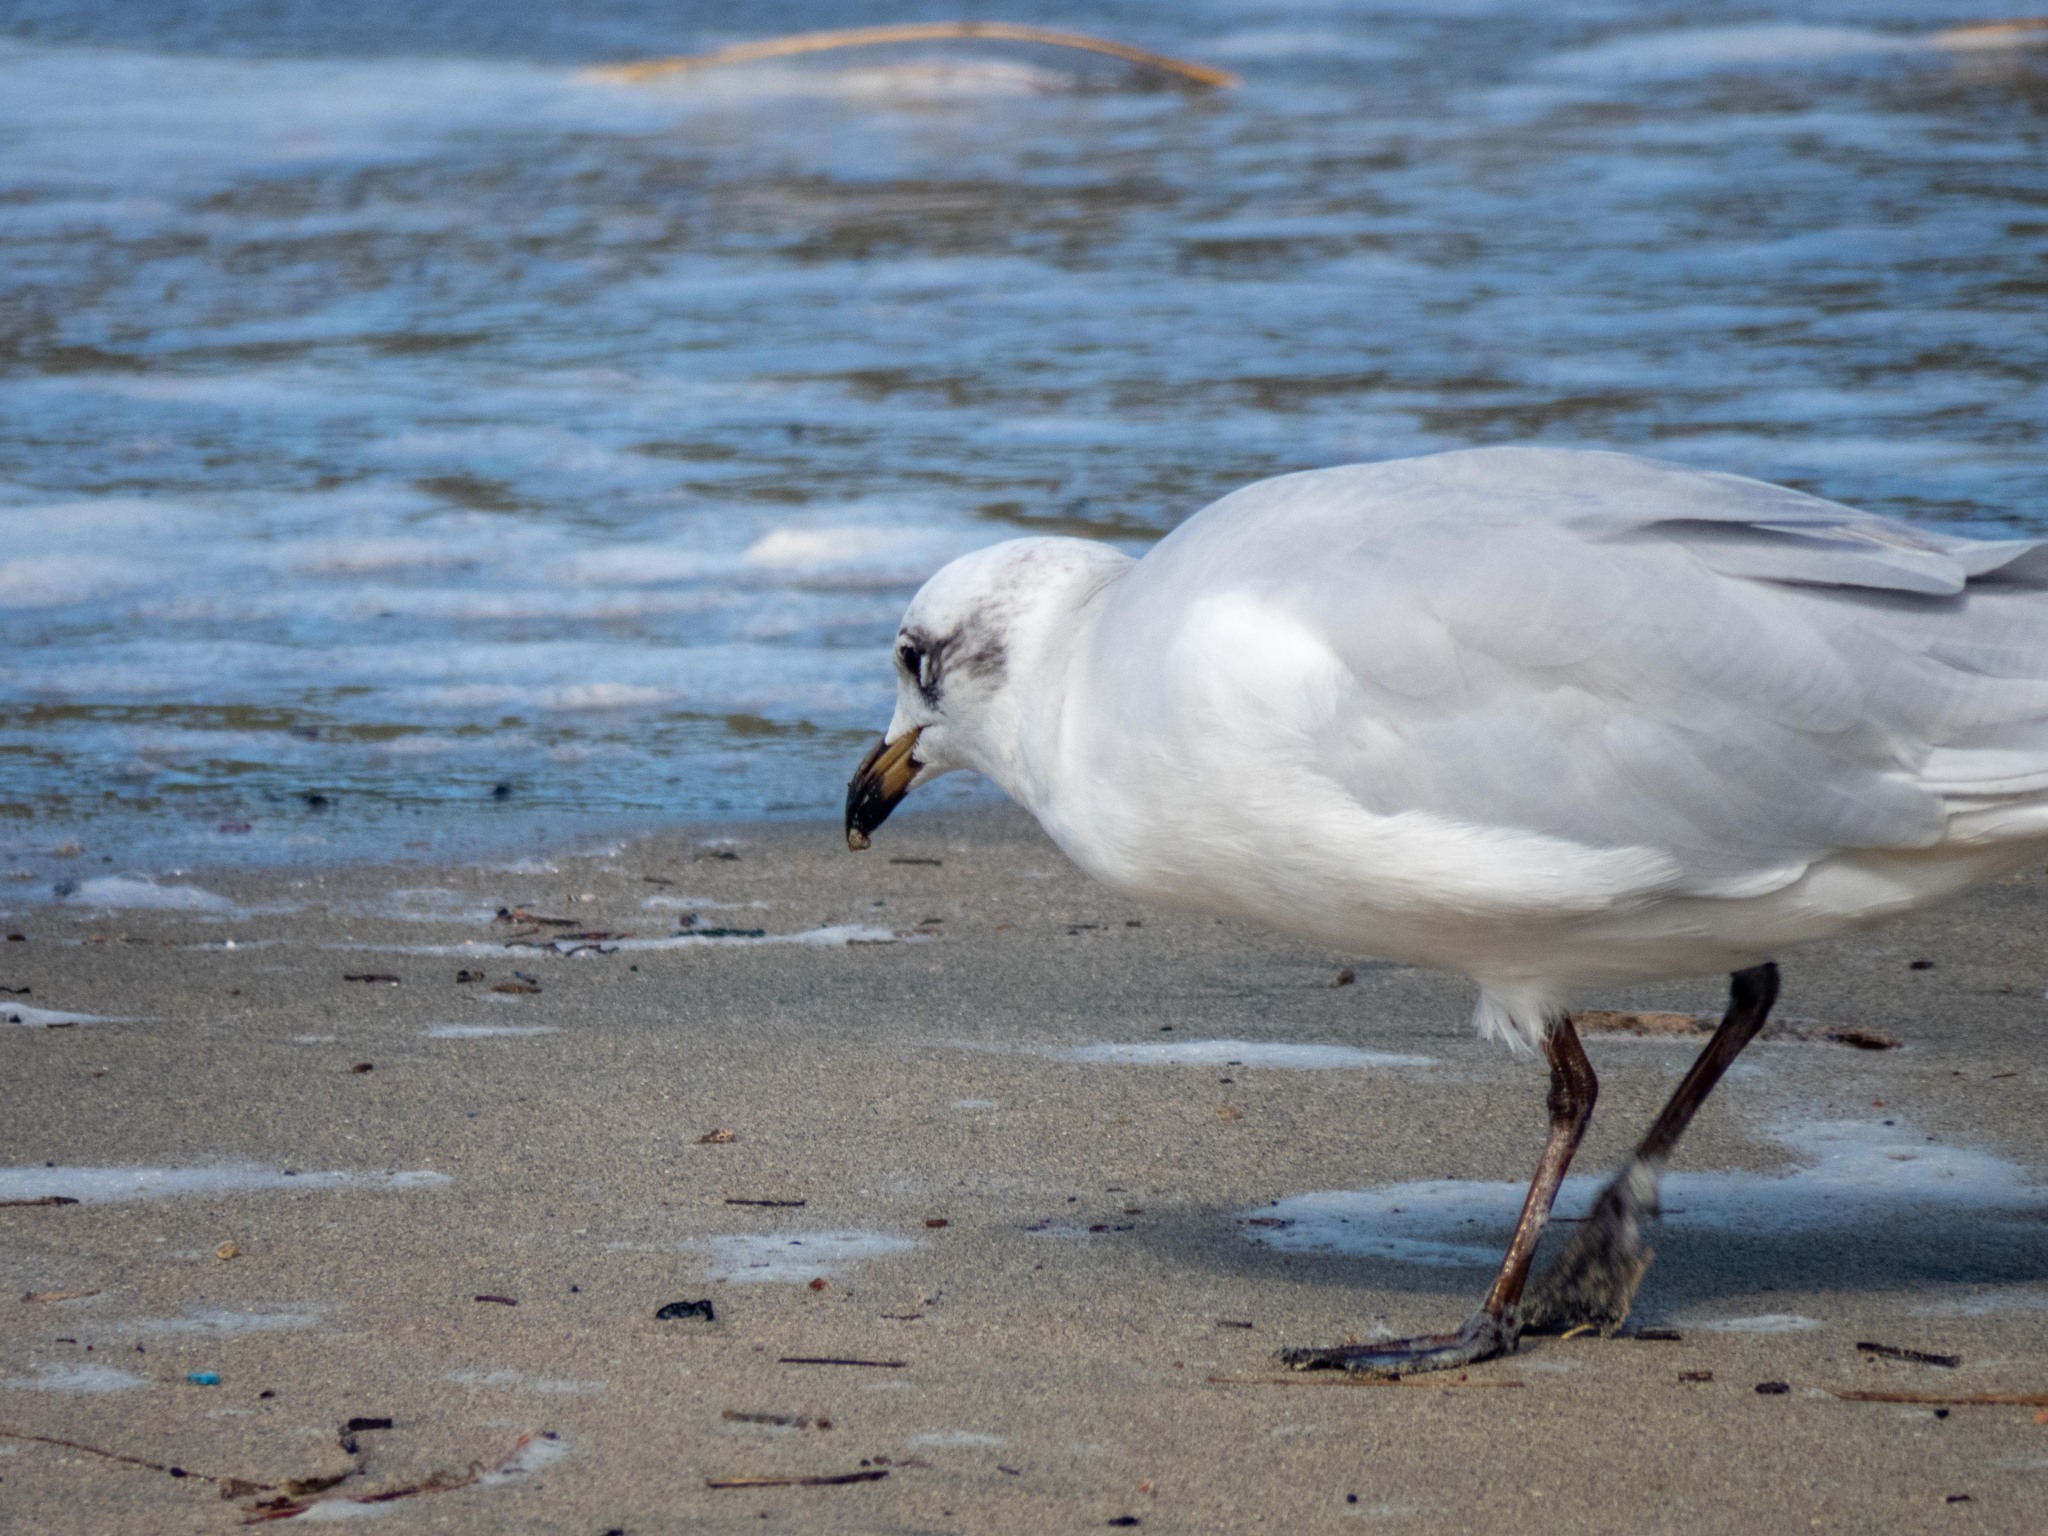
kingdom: Animalia
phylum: Chordata
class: Aves
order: Charadriiformes
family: Laridae
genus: Ichthyaetus
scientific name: Ichthyaetus melanocephalus
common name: Mediterranean gull
